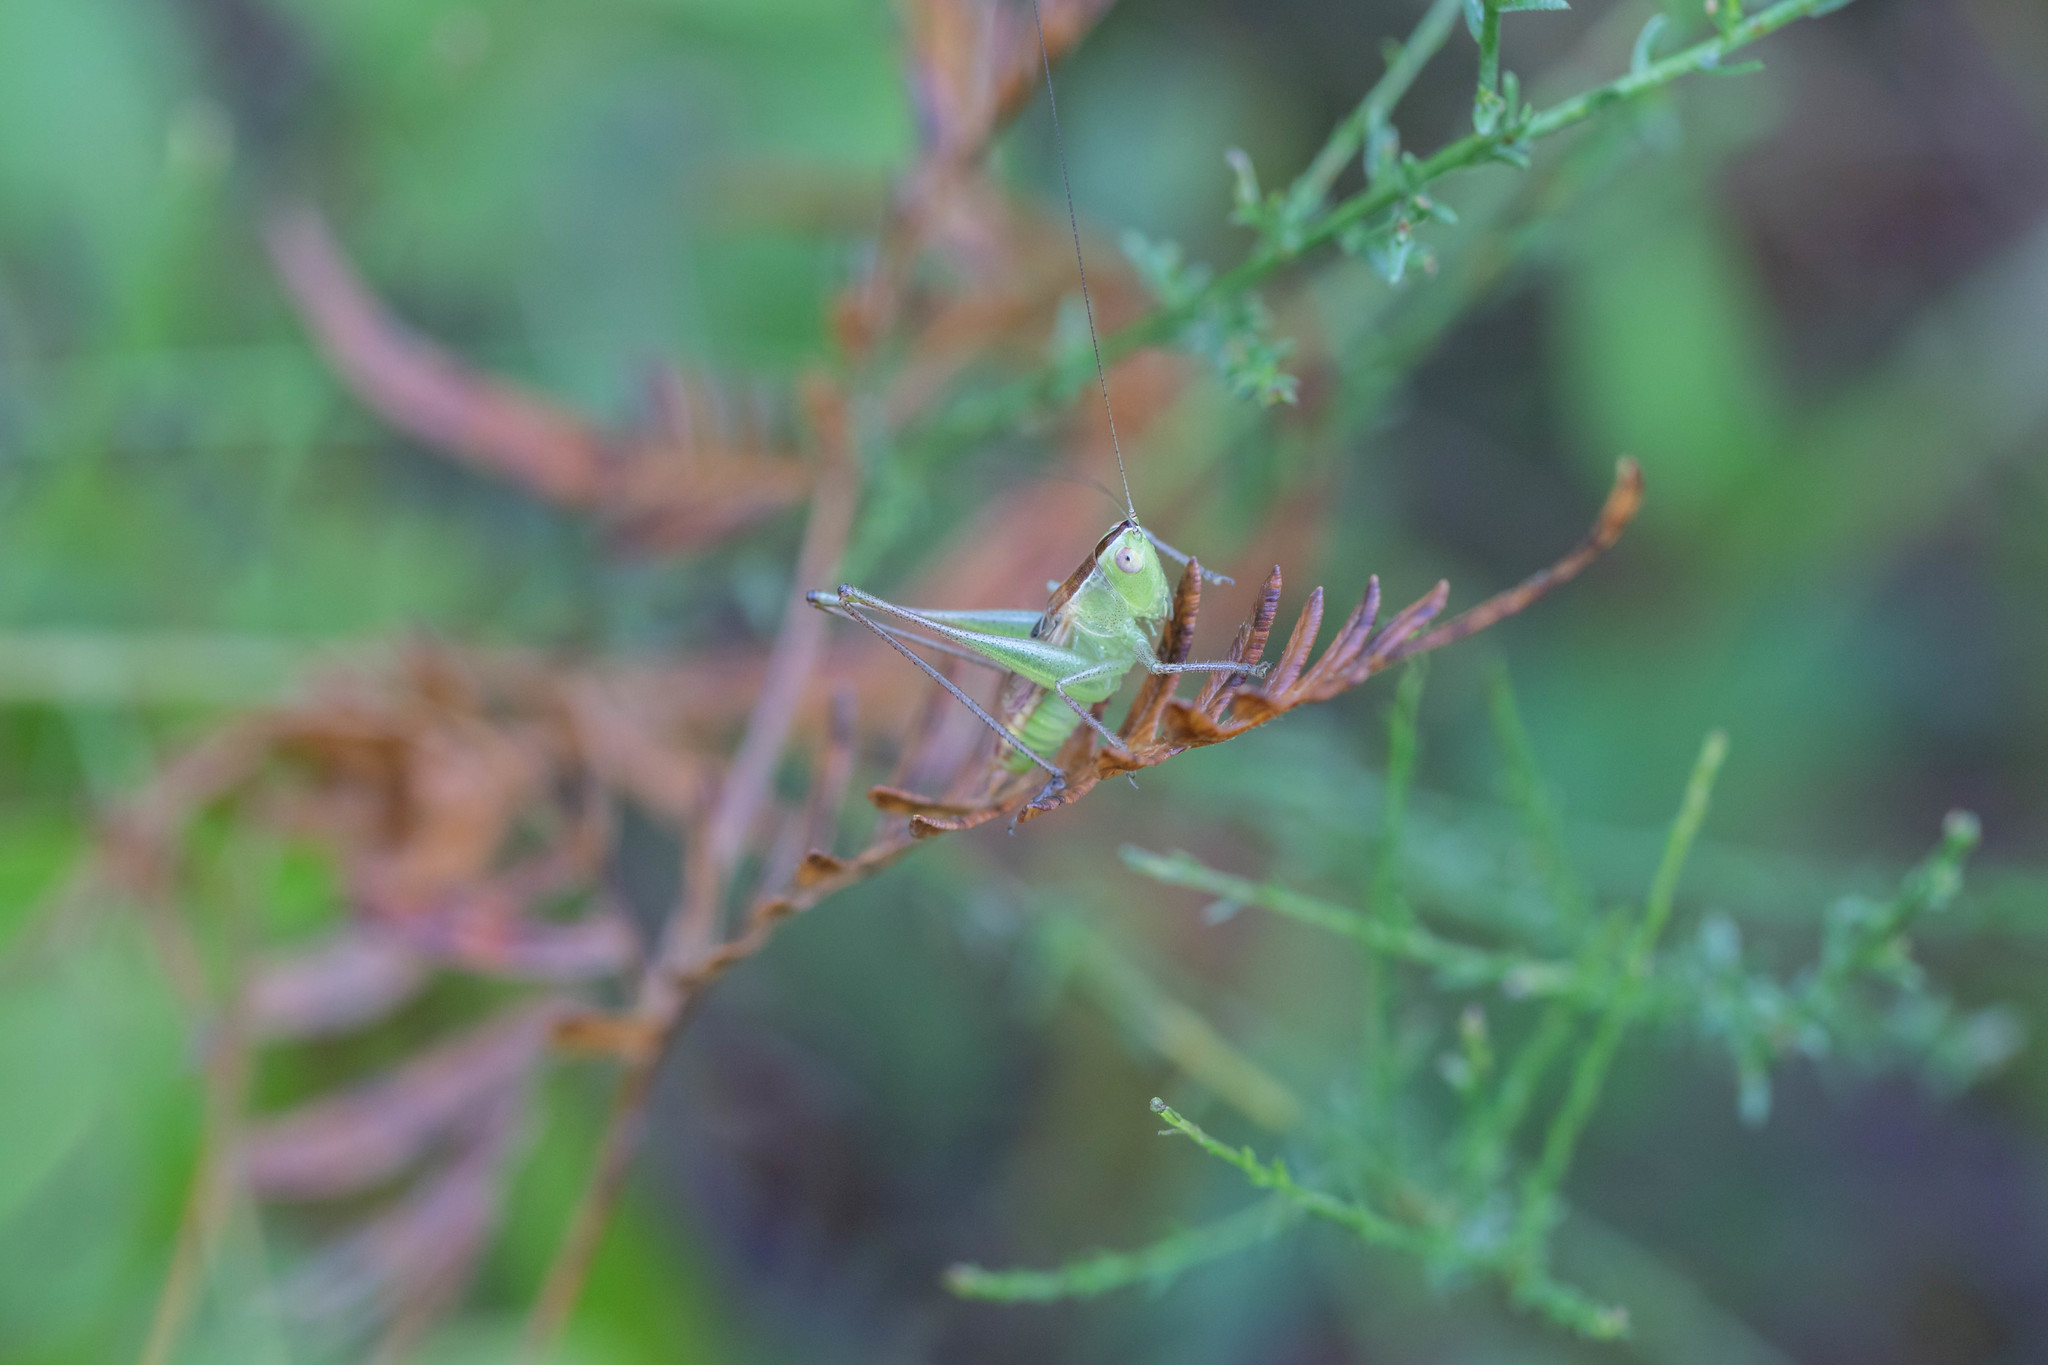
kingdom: Animalia
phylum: Arthropoda
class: Insecta
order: Orthoptera
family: Tettigoniidae
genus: Conocephalus
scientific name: Conocephalus strictus
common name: Straight-lanced katydid
